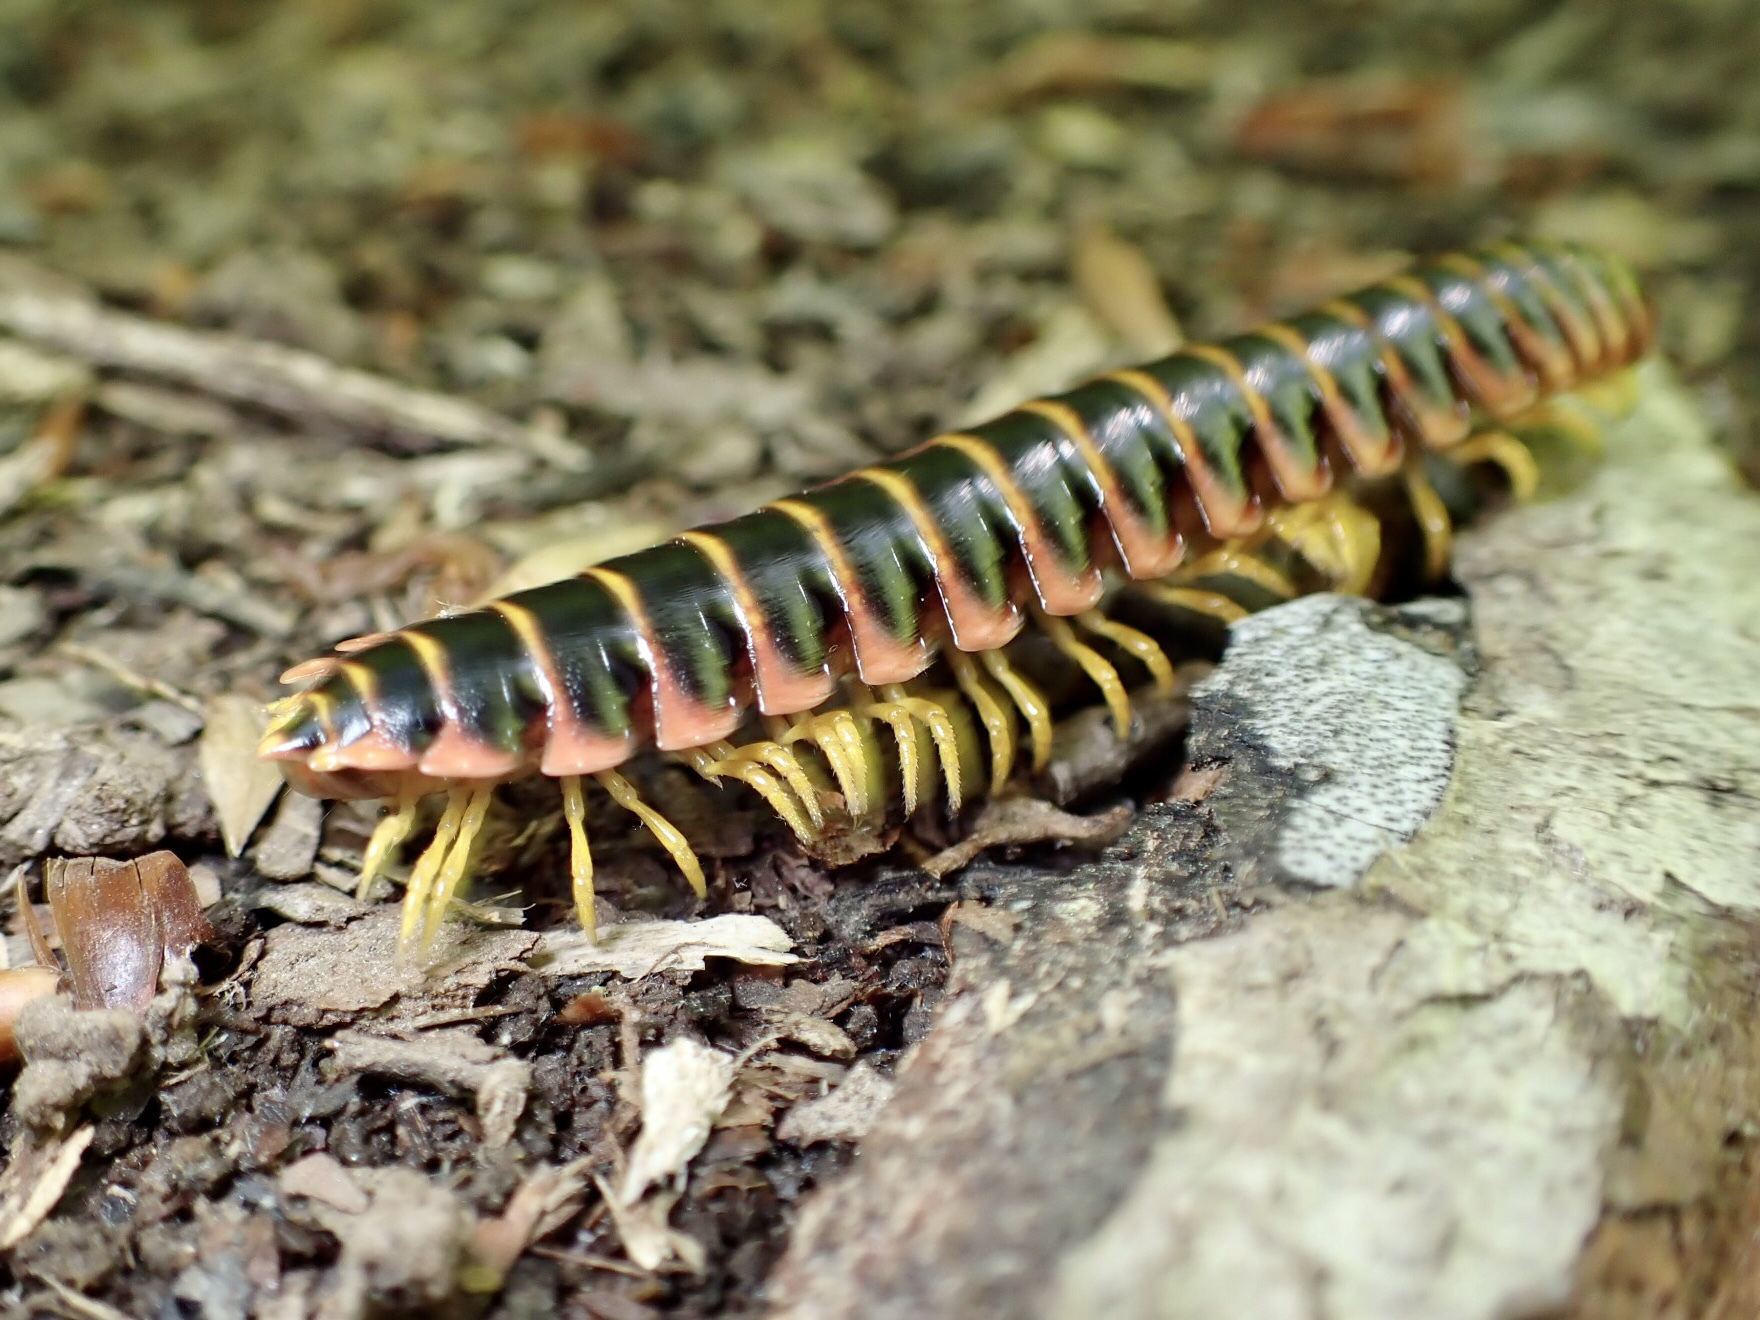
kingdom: Animalia
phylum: Arthropoda
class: Diplopoda
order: Polydesmida
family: Xystodesmidae
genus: Apheloria
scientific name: Apheloria virginiensis
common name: Black-and-gold flat millipede
